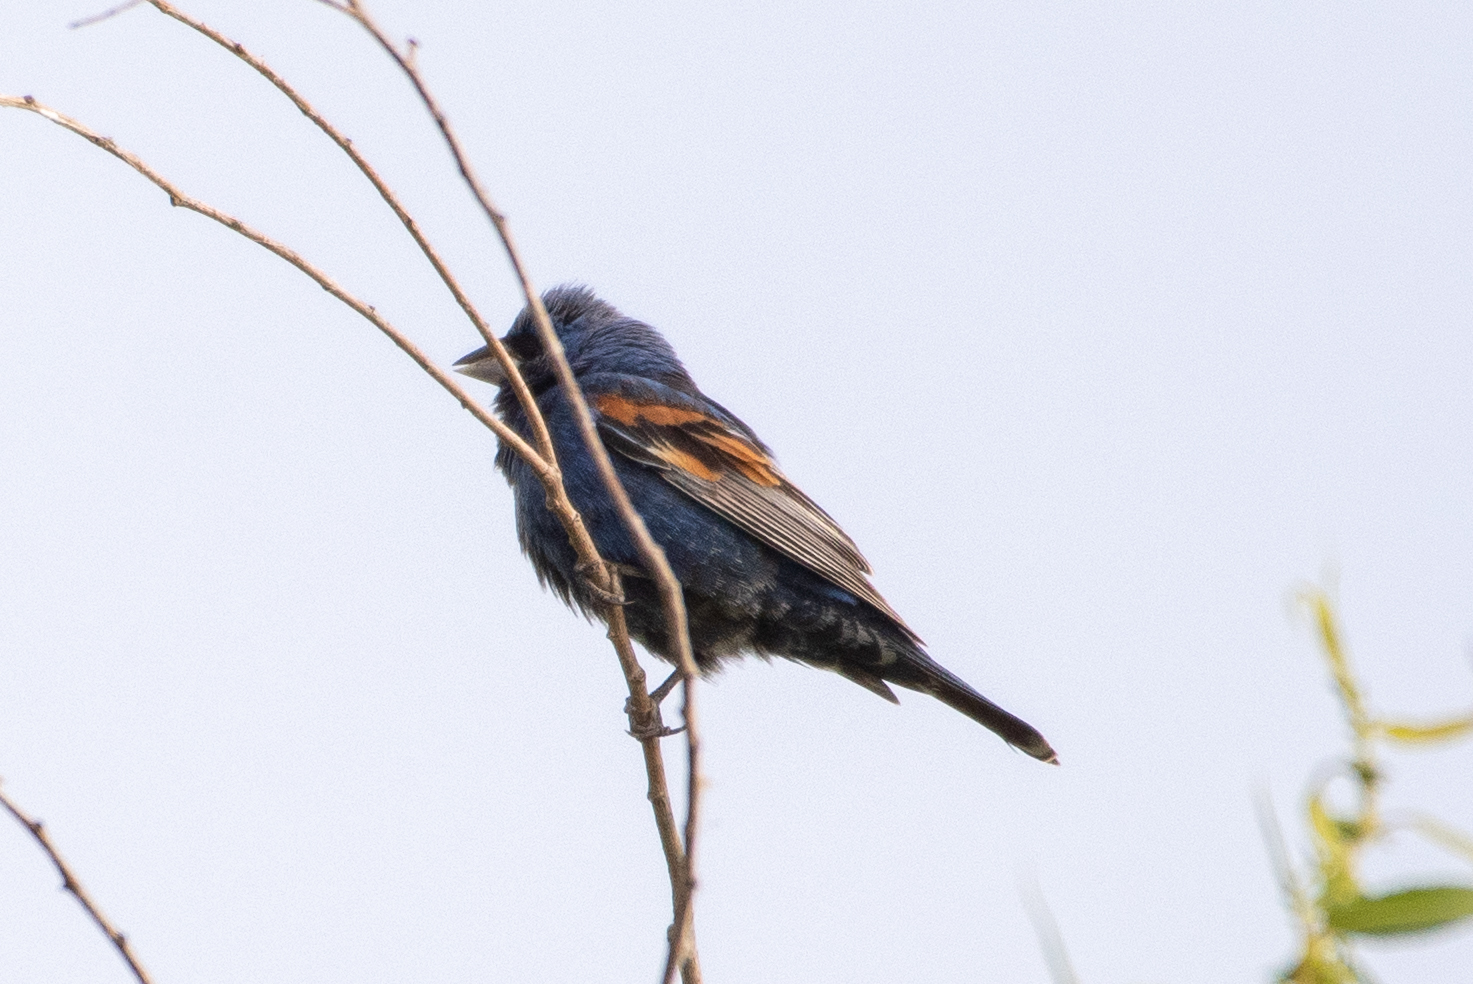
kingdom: Animalia
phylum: Chordata
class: Aves
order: Passeriformes
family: Cardinalidae
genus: Passerina
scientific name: Passerina caerulea
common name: Blue grosbeak
